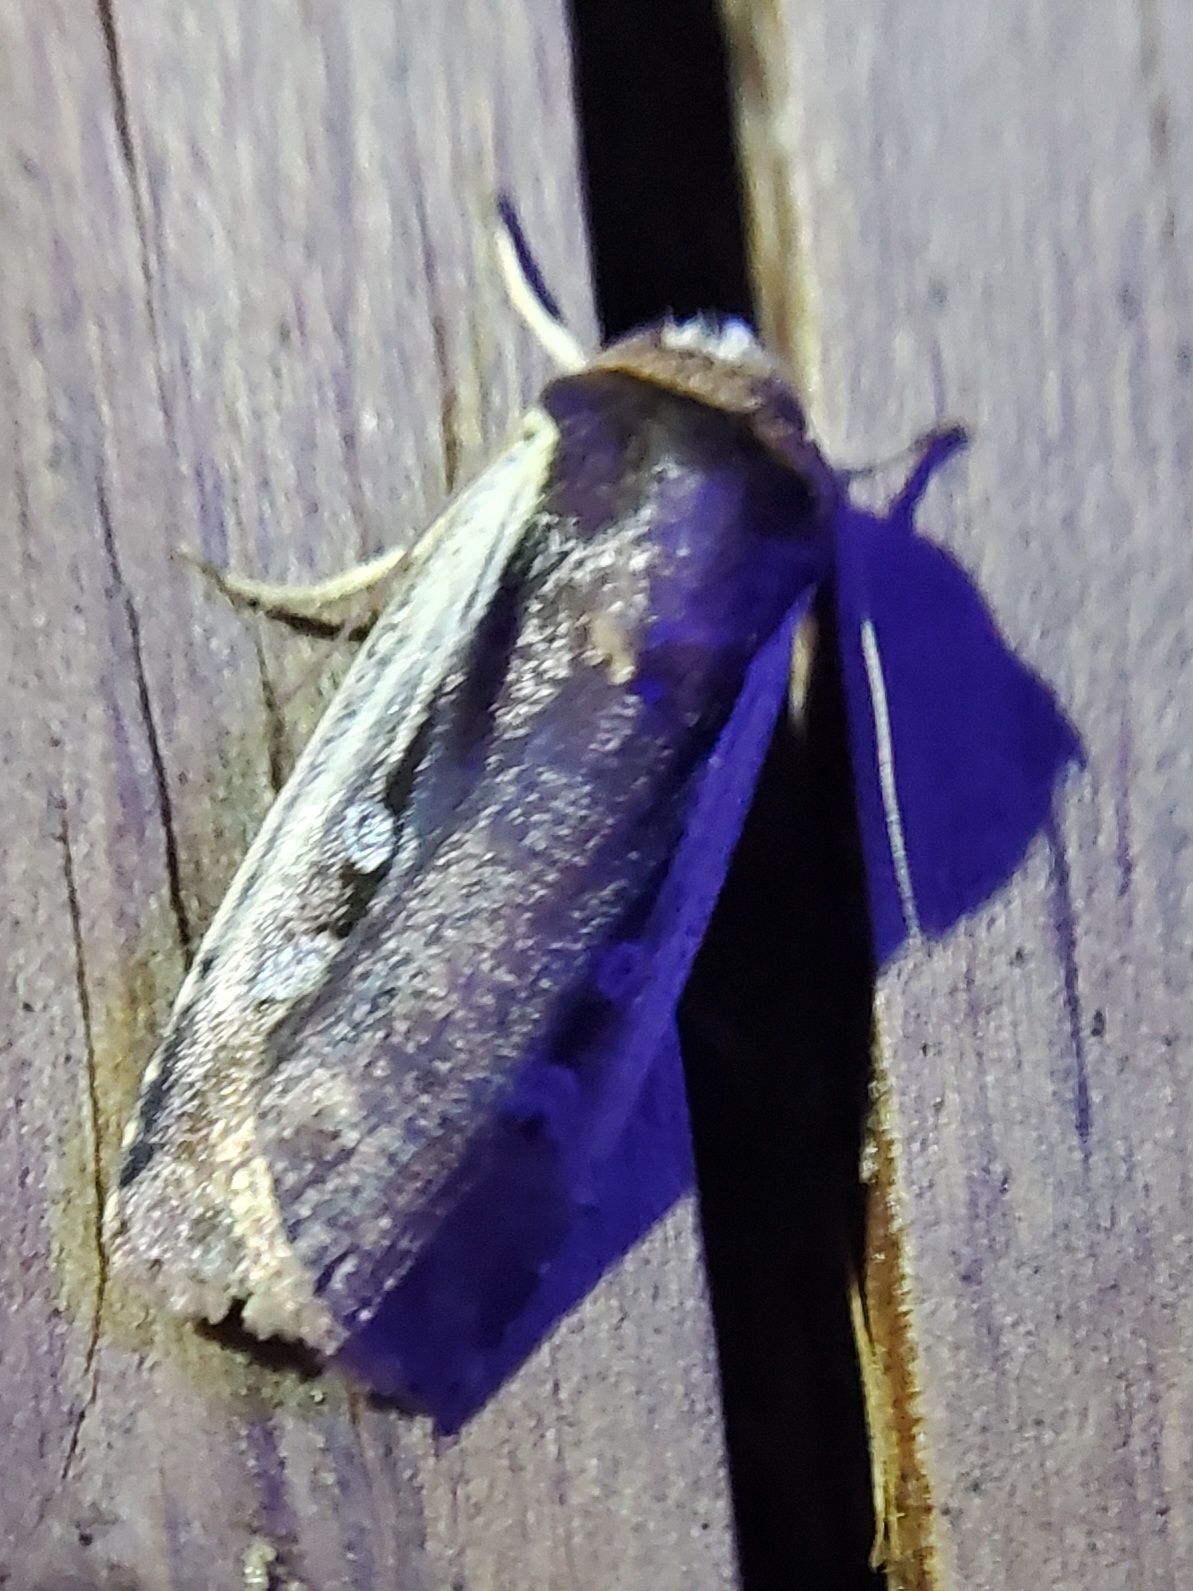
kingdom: Animalia
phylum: Arthropoda
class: Insecta
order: Lepidoptera
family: Noctuidae
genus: Ochropleura
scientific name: Ochropleura implecta
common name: Flame-shouldered dart
